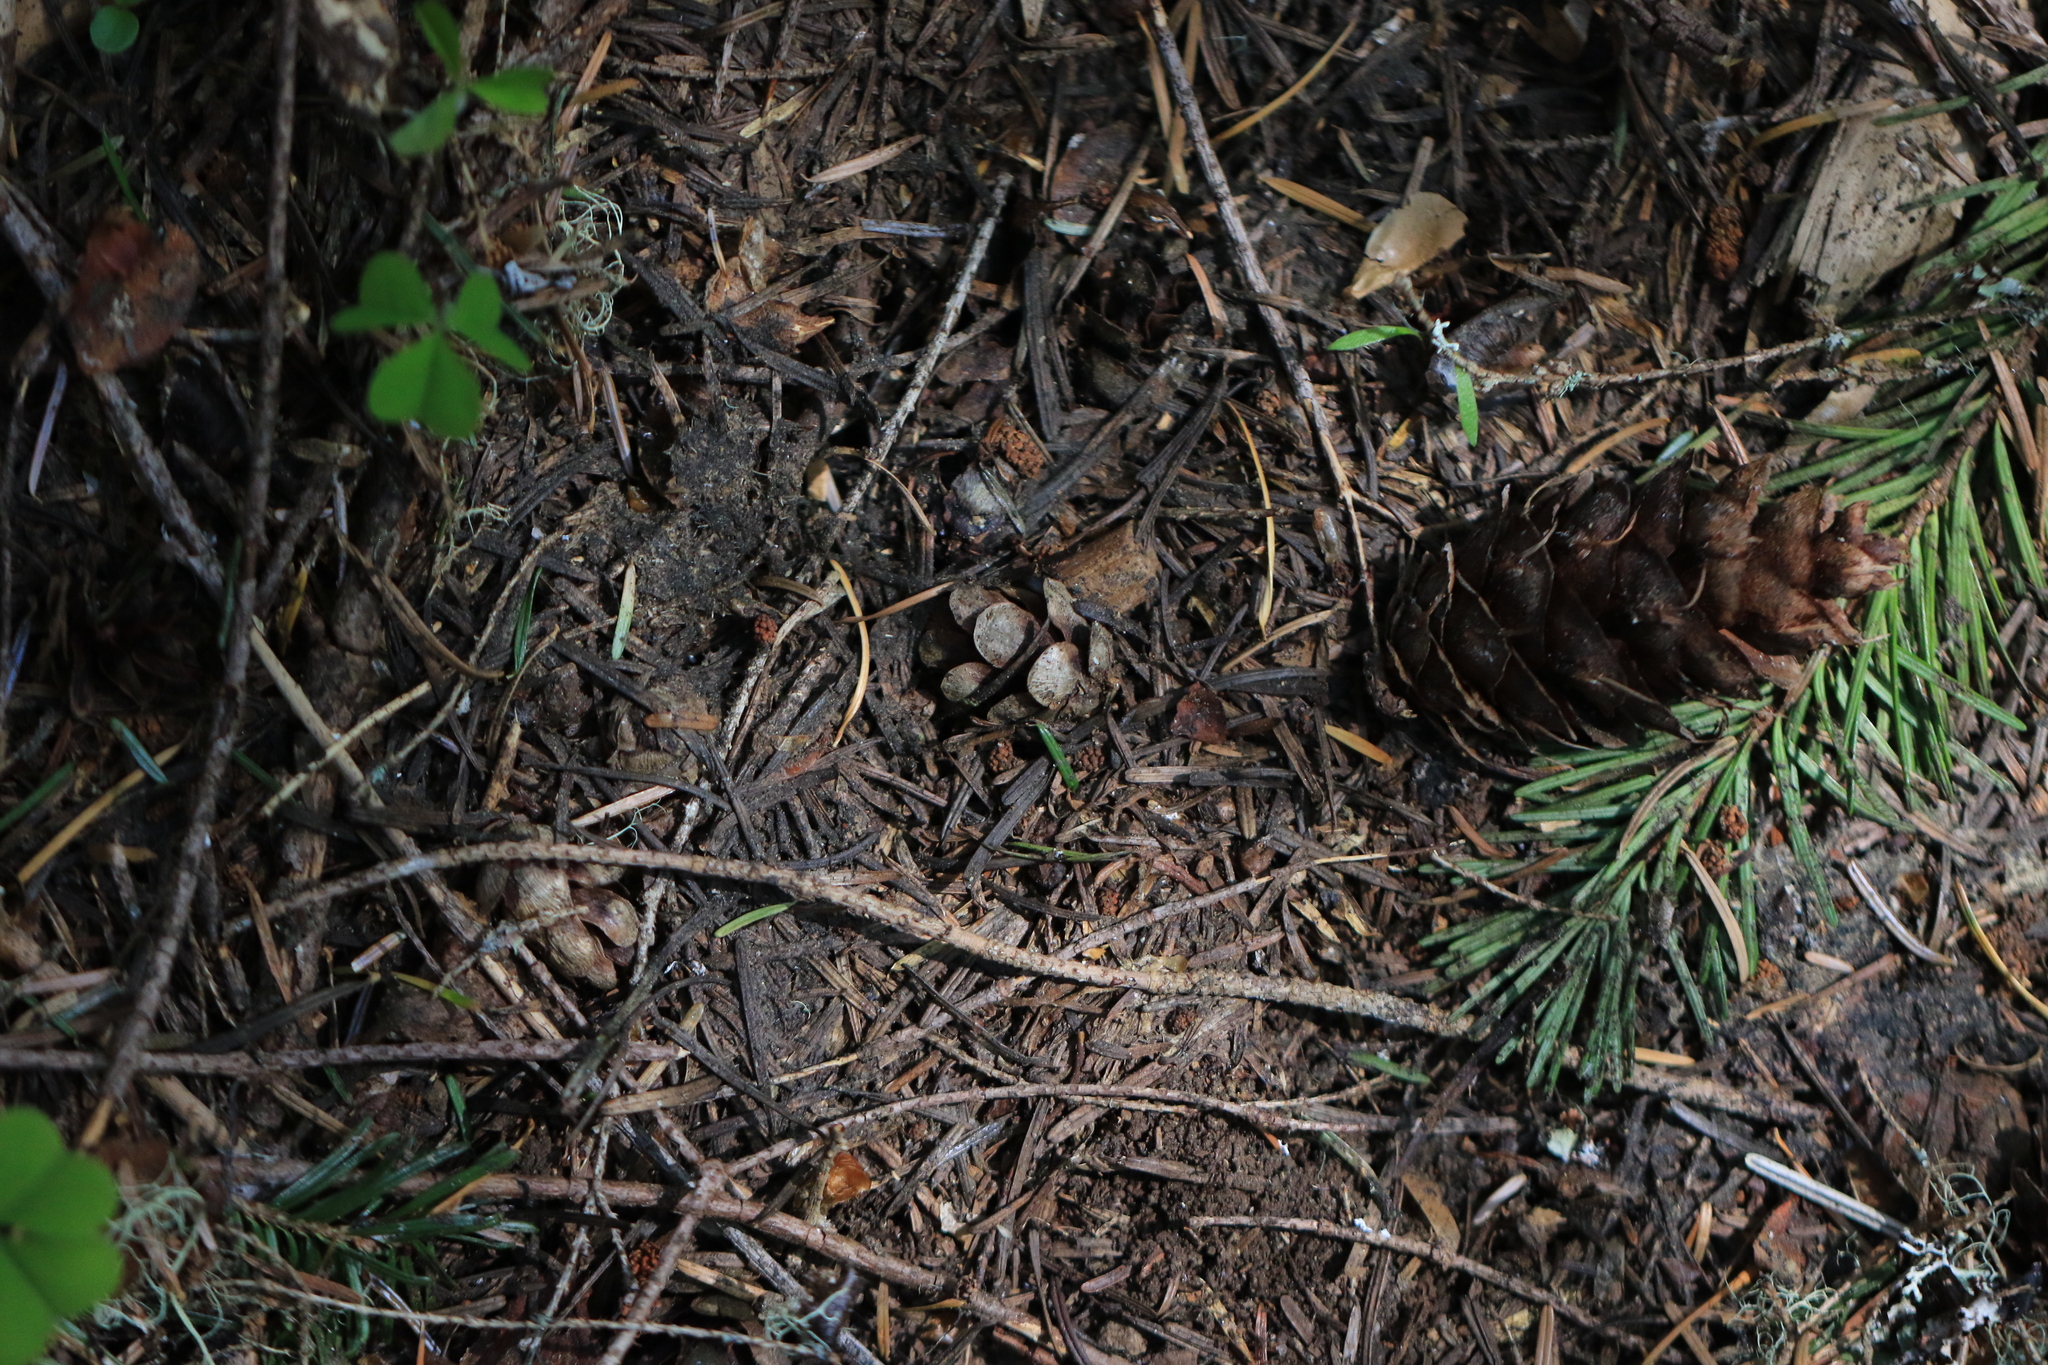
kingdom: Plantae
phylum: Tracheophyta
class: Pinopsida
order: Pinales
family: Pinaceae
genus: Tsuga
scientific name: Tsuga heterophylla
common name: Western hemlock
